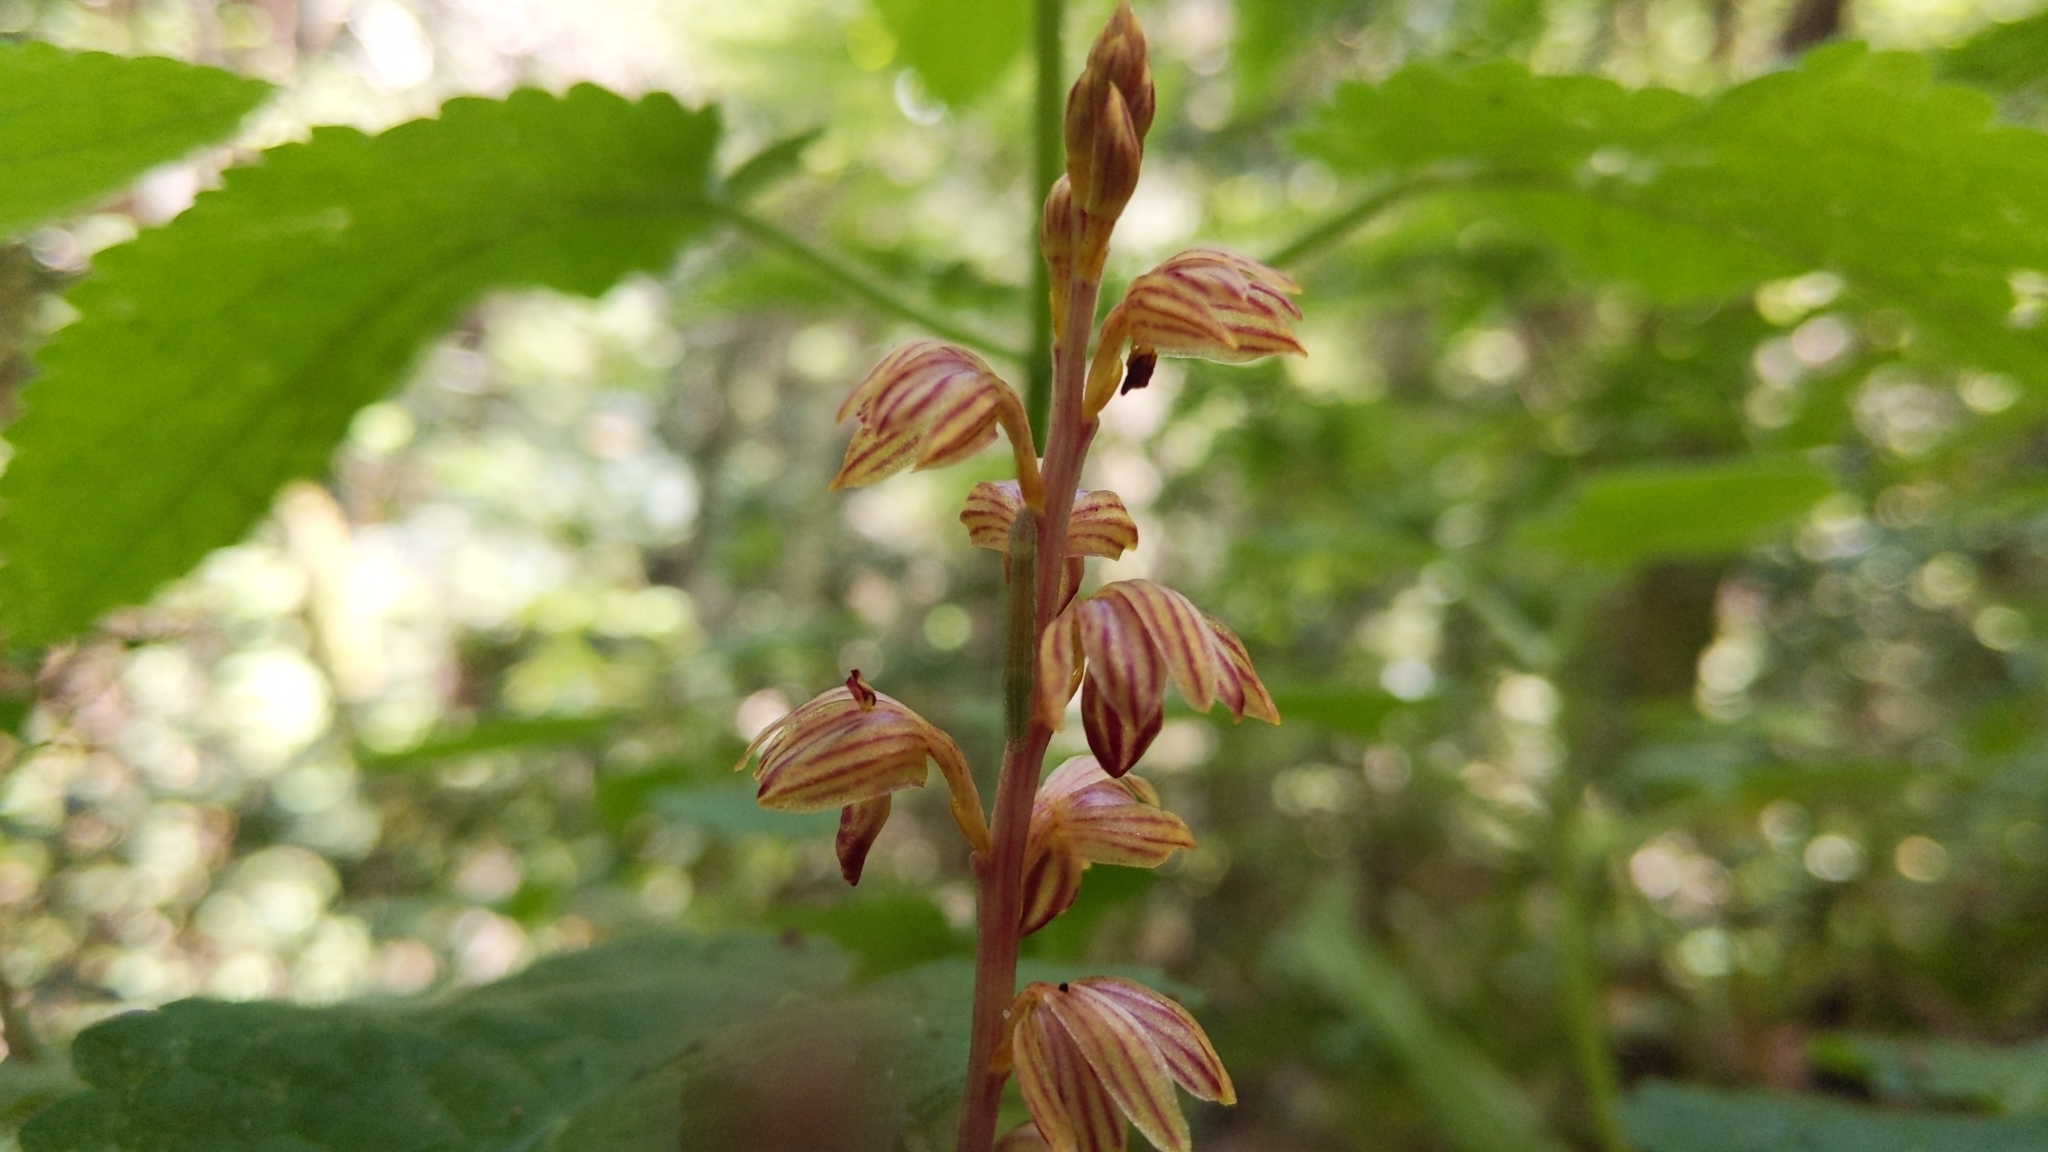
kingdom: Plantae
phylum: Tracheophyta
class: Liliopsida
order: Asparagales
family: Orchidaceae
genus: Corallorhiza
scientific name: Corallorhiza striata
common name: Hooded coralroot
